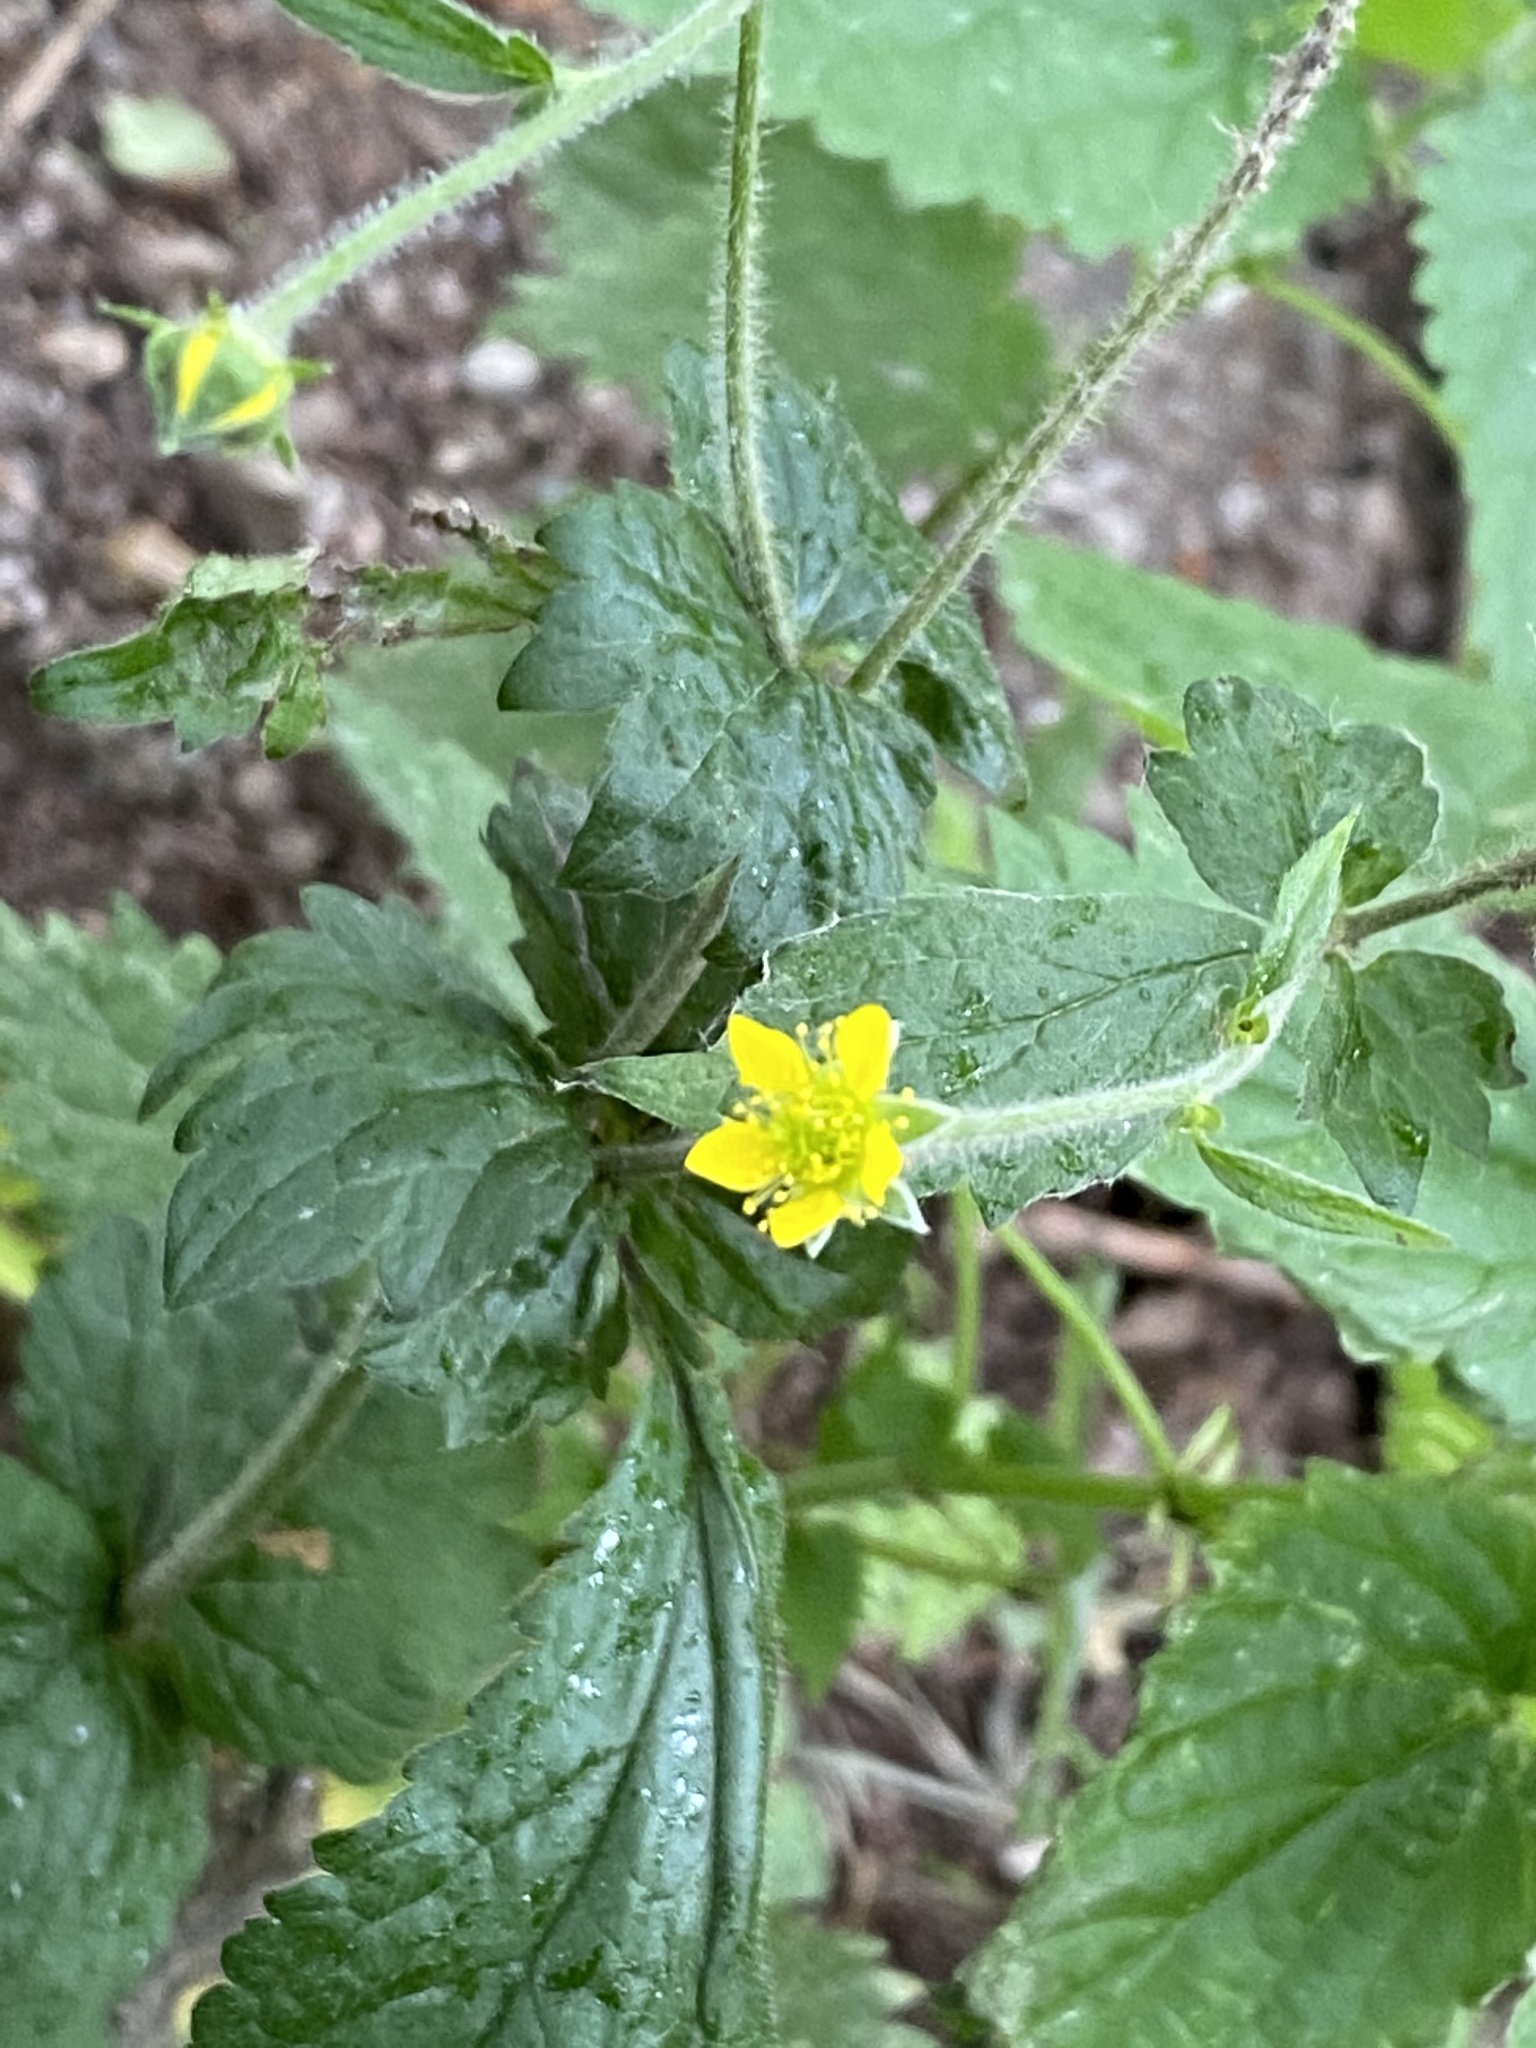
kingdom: Plantae
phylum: Tracheophyta
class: Magnoliopsida
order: Rosales
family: Rosaceae
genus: Geum
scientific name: Geum urbanum
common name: Wood avens
